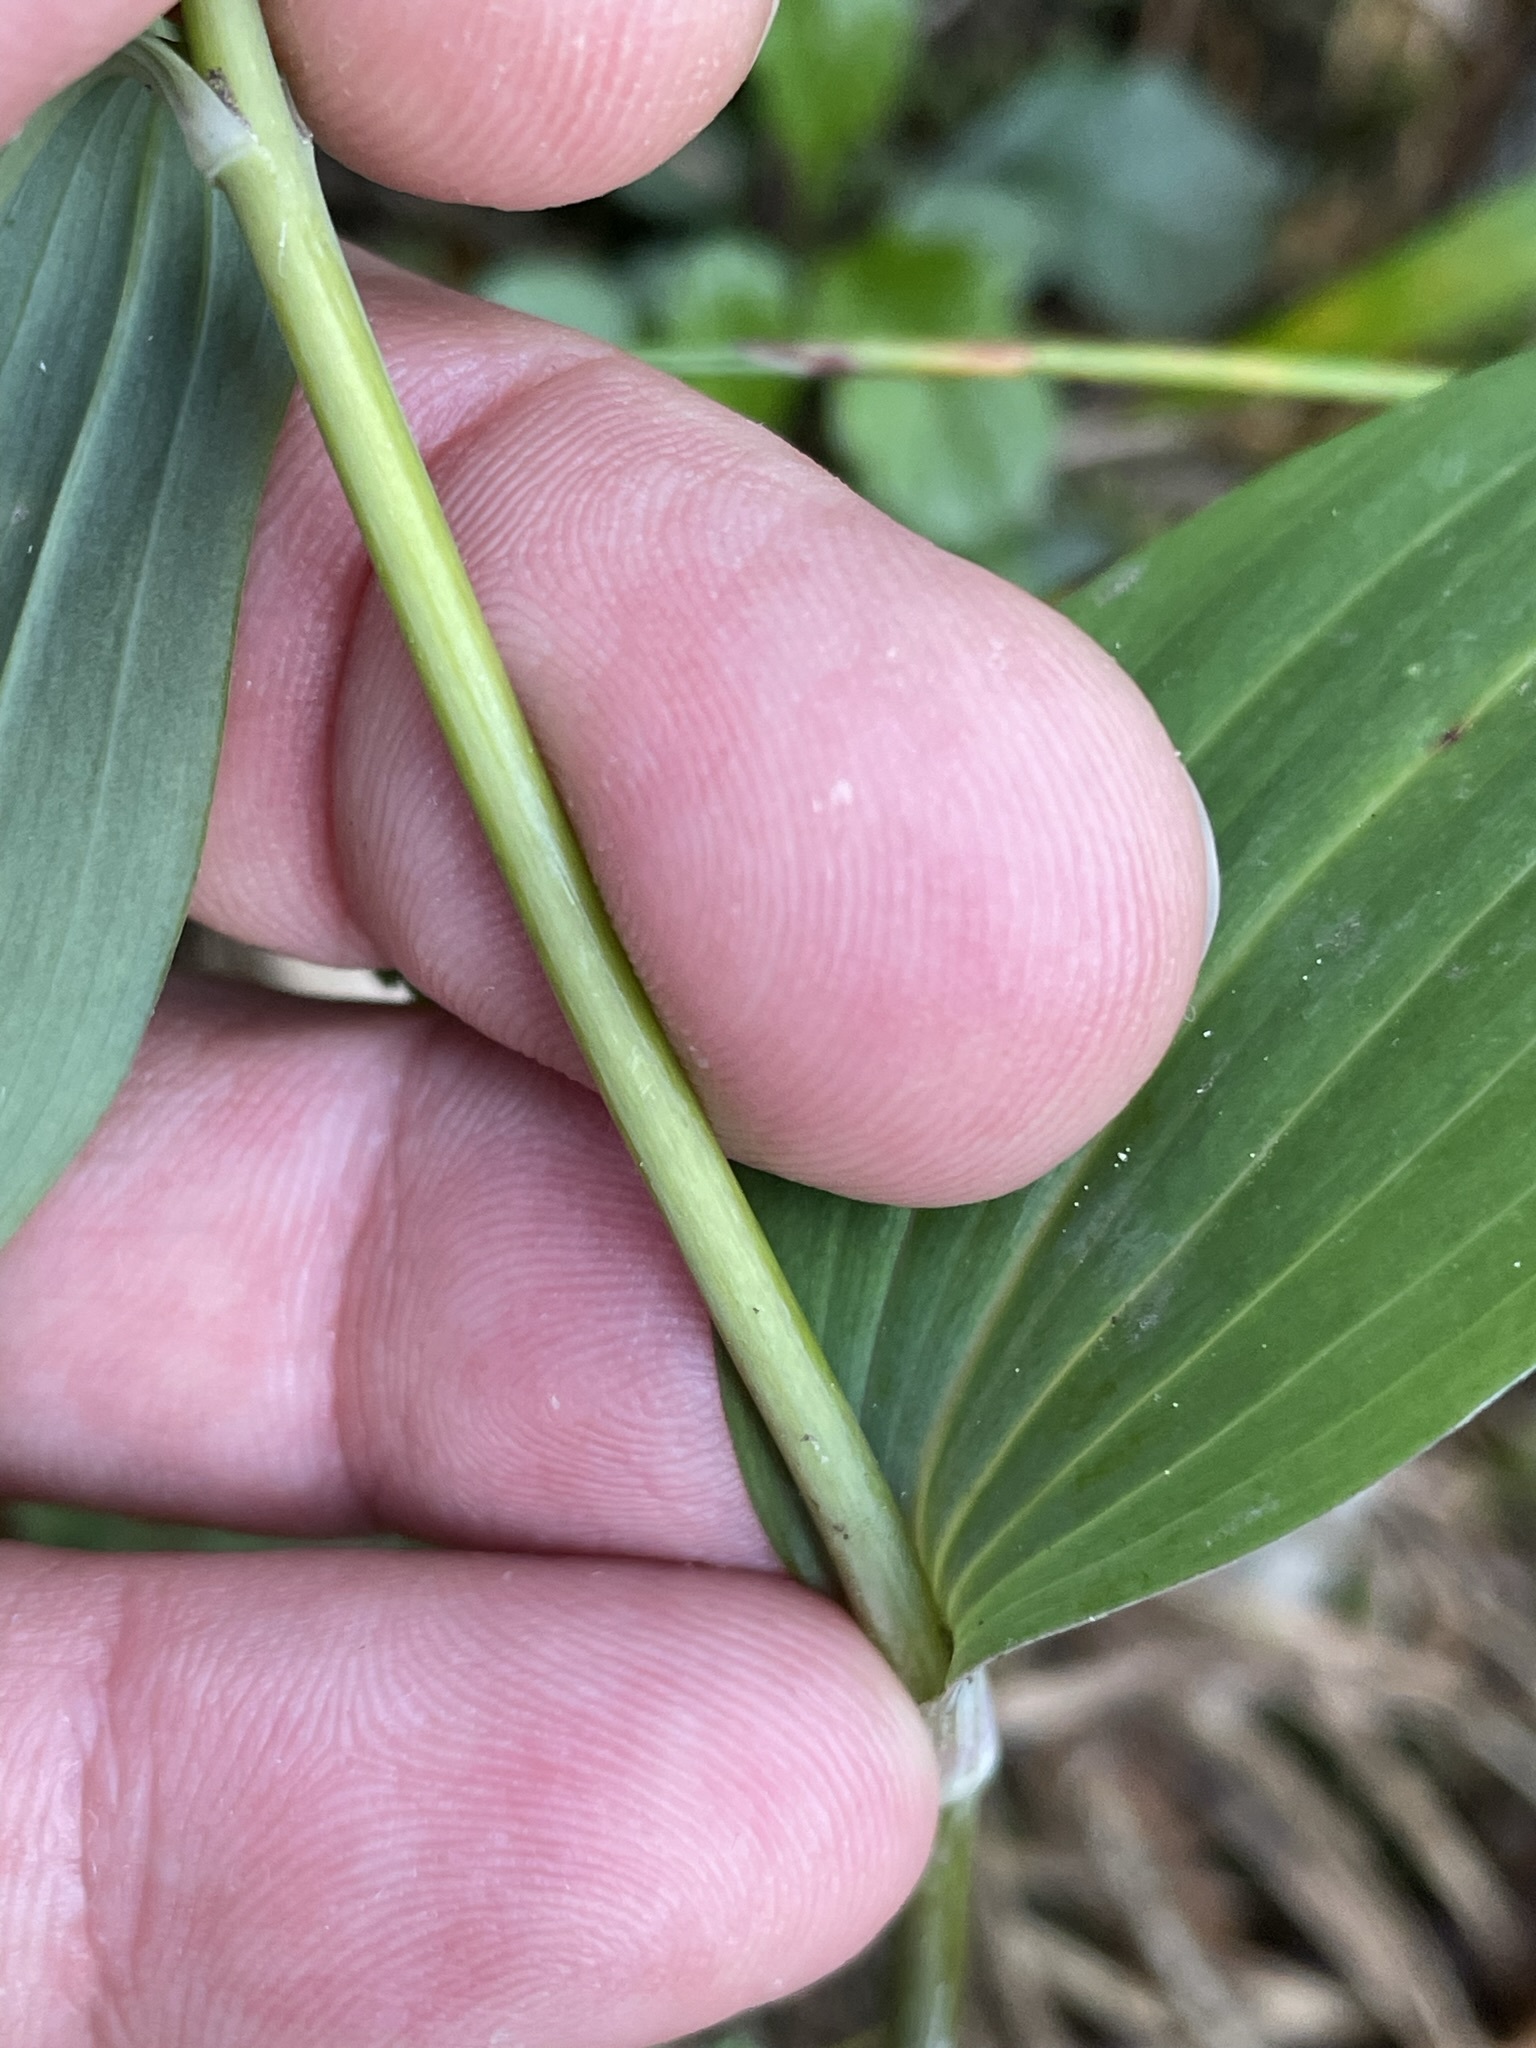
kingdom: Plantae
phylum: Tracheophyta
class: Liliopsida
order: Asparagales
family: Asparagaceae
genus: Polygonatum
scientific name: Polygonatum multiflorum
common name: Solomon's-seal
